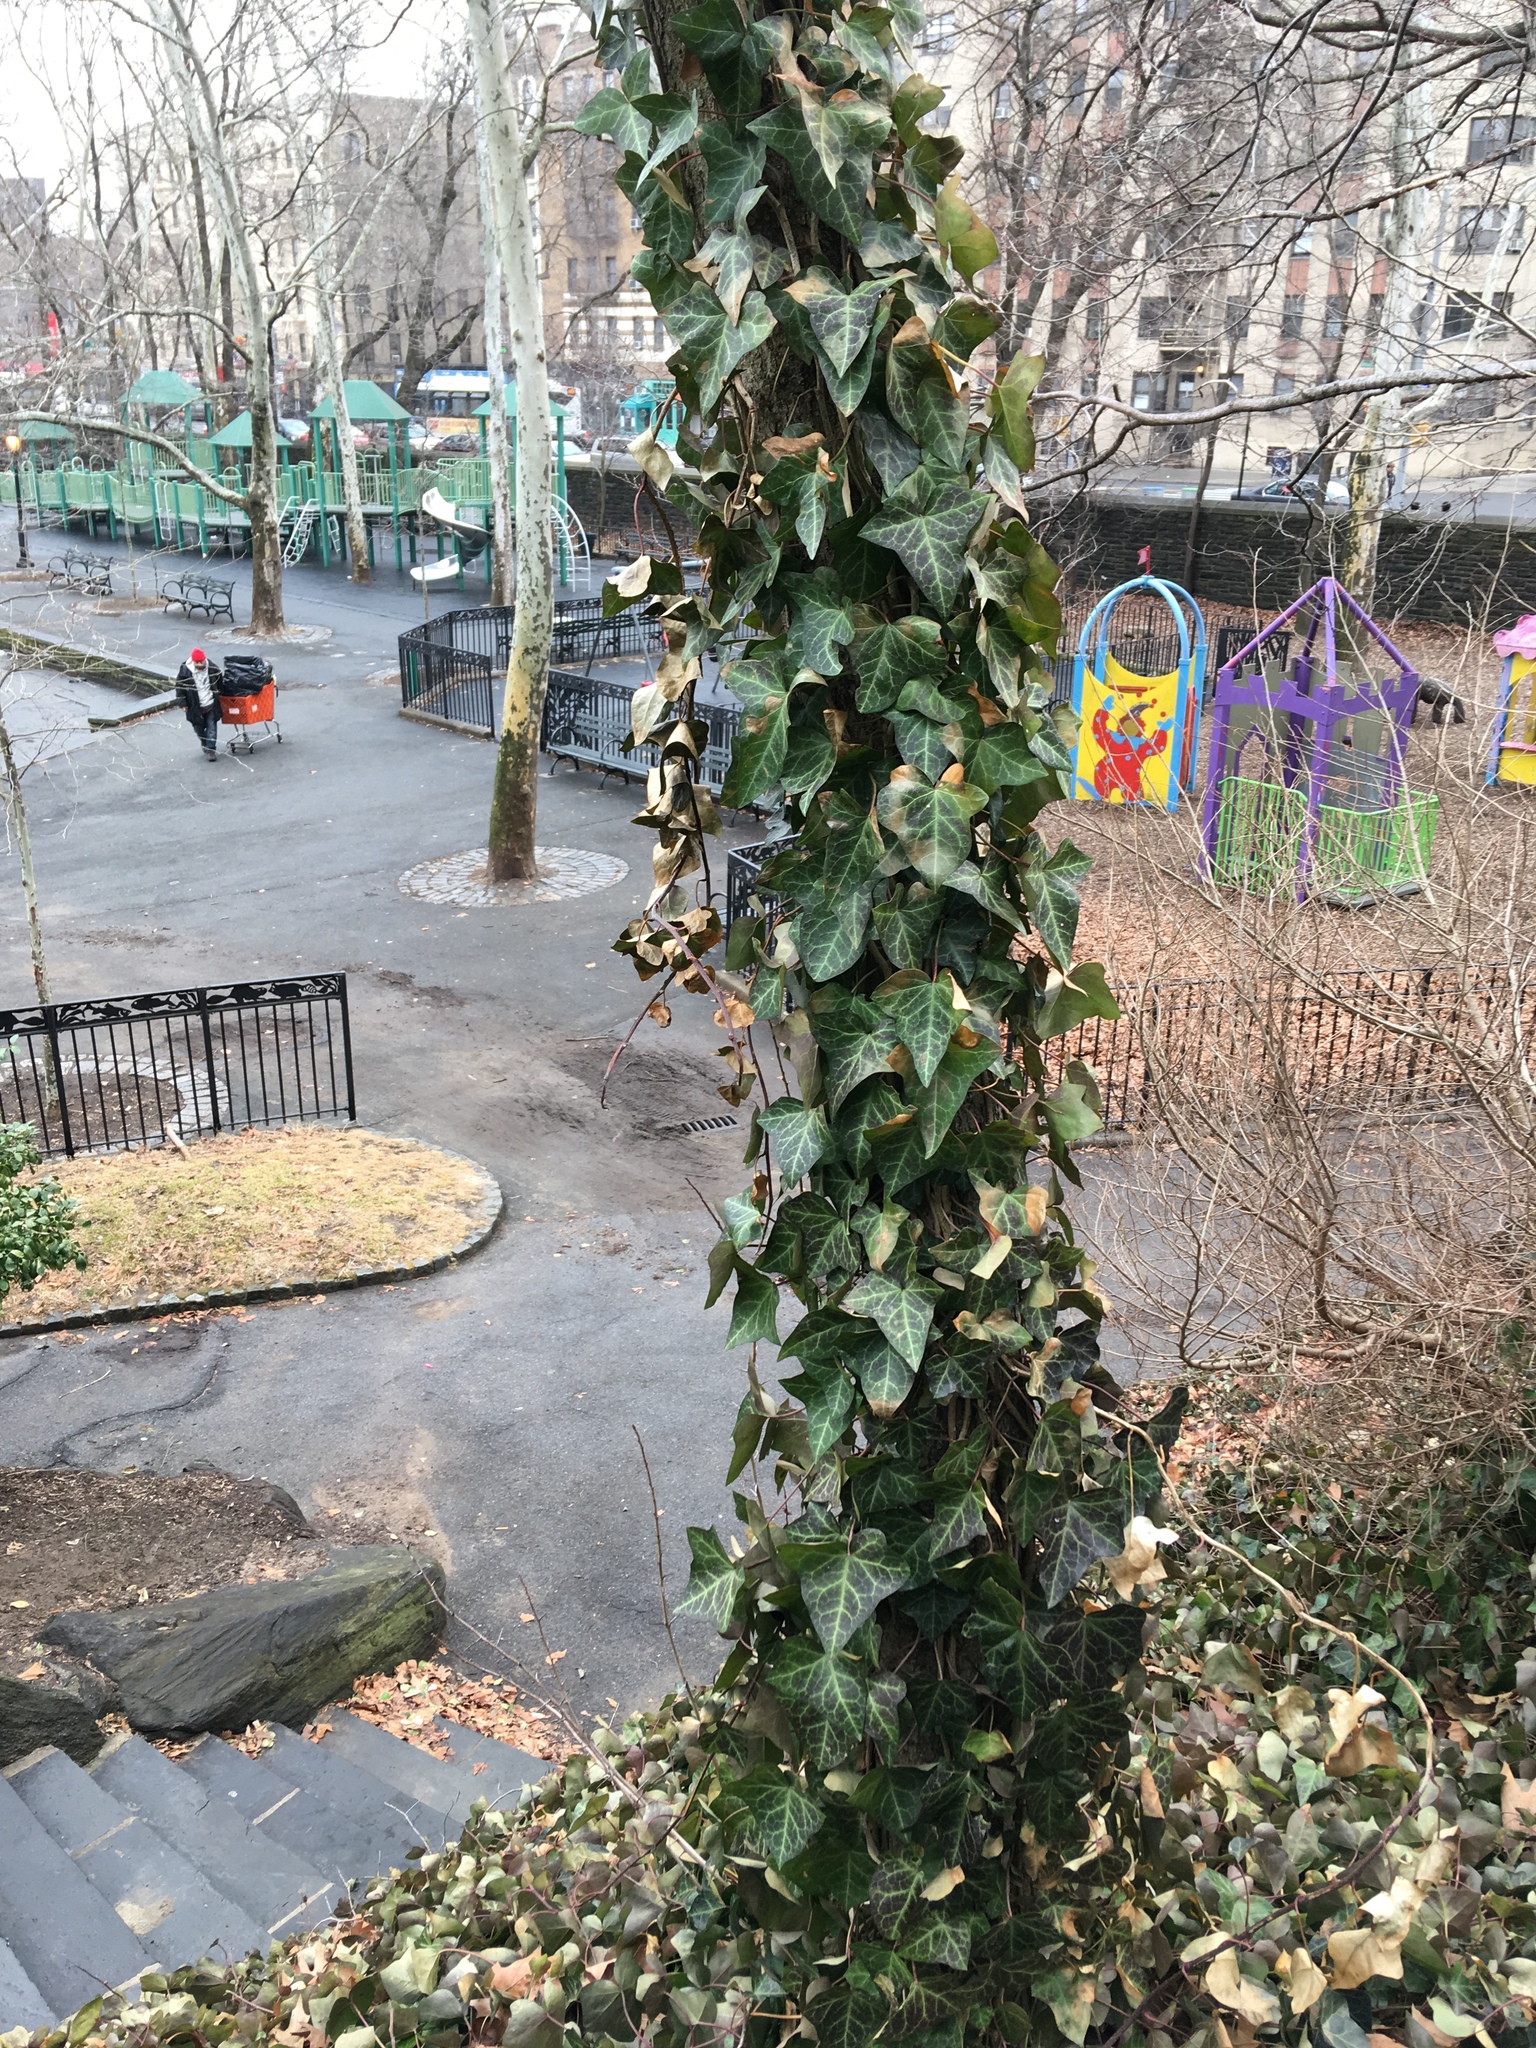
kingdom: Plantae
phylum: Tracheophyta
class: Magnoliopsida
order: Apiales
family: Araliaceae
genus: Hedera
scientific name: Hedera helix
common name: Ivy
